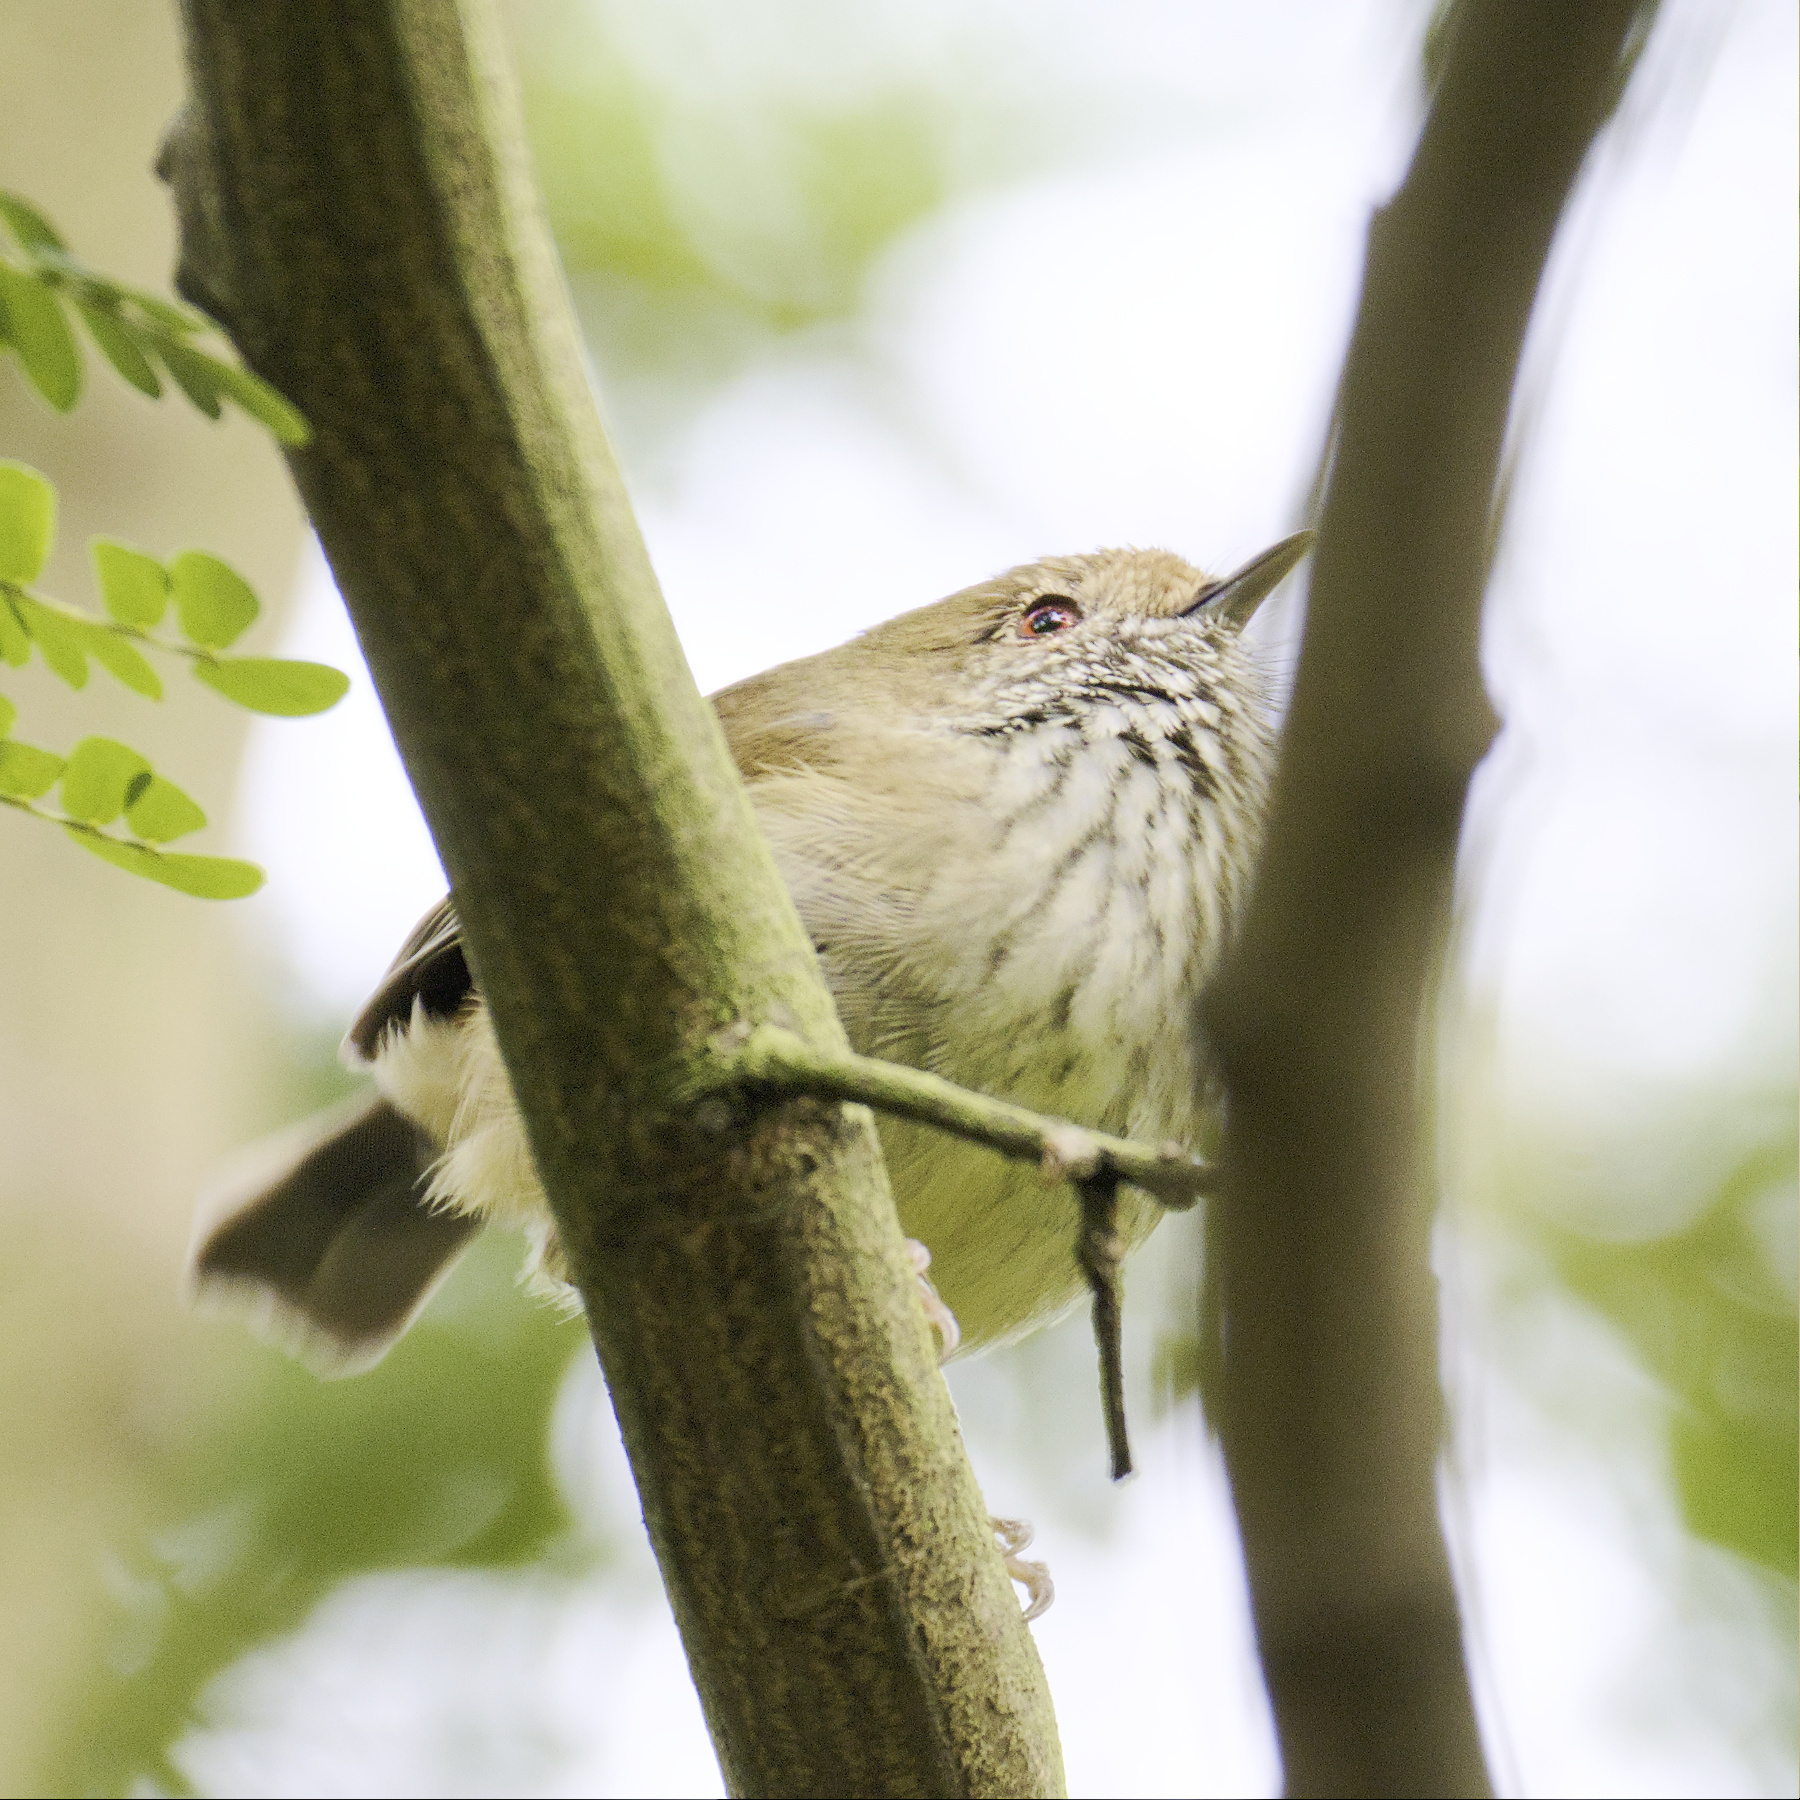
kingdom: Animalia
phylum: Chordata
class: Aves
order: Passeriformes
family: Acanthizidae
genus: Acanthiza
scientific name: Acanthiza pusilla
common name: Brown thornbill
